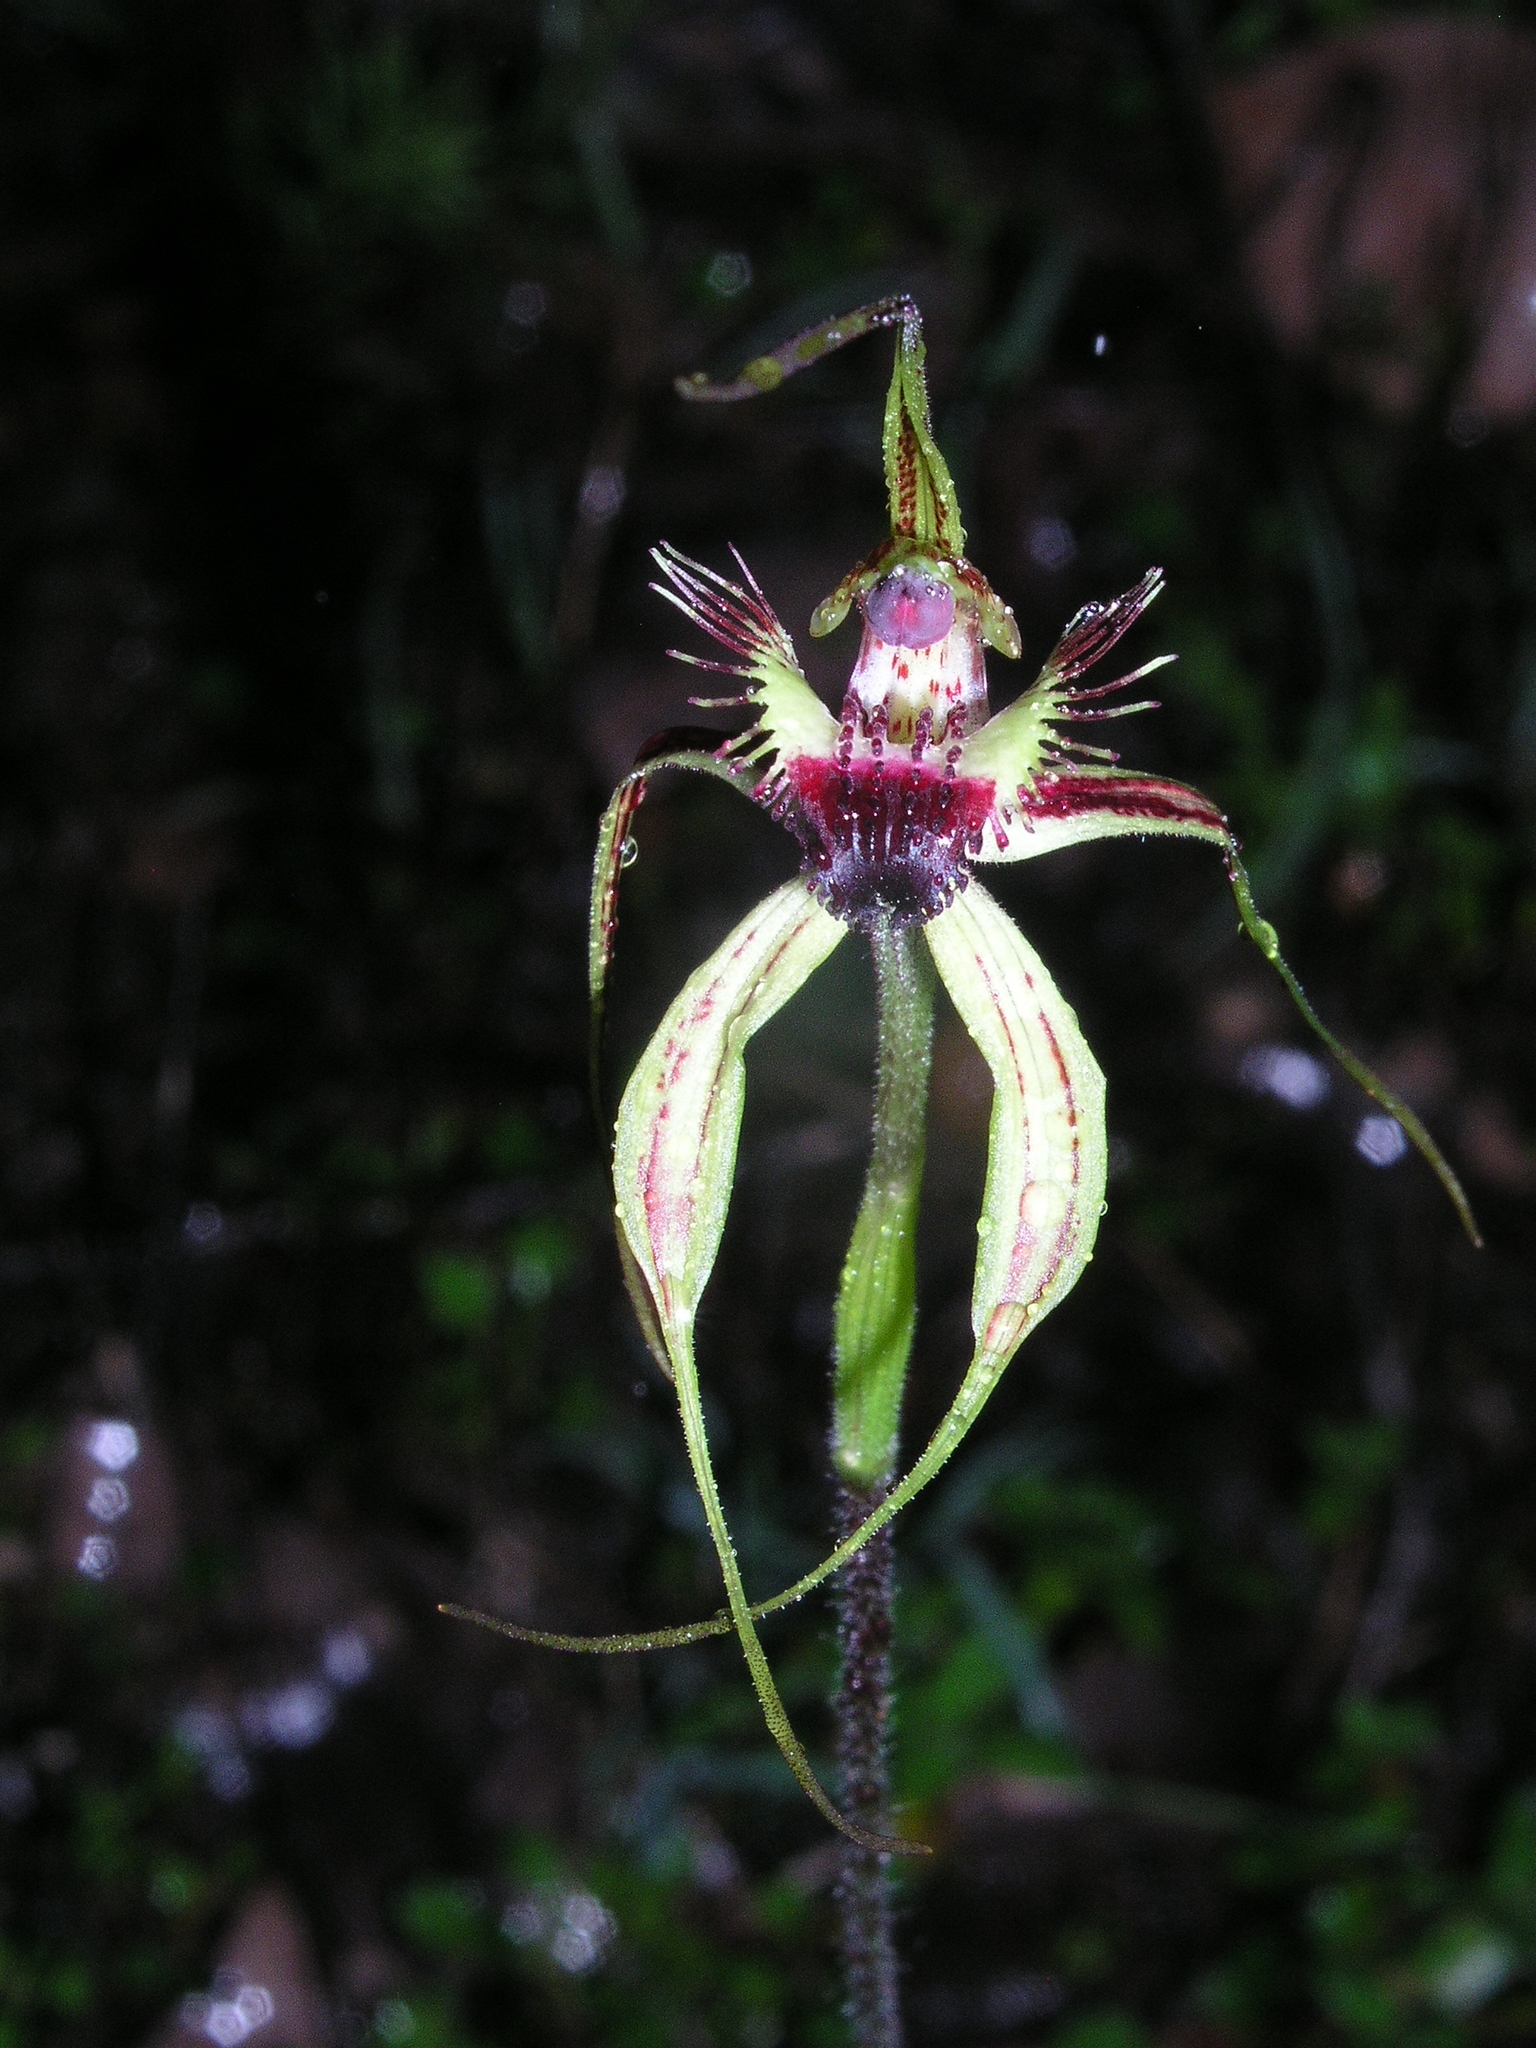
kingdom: Plantae
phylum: Tracheophyta
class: Liliopsida
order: Asparagales
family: Orchidaceae
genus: Caladenia
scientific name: Caladenia pectinata
